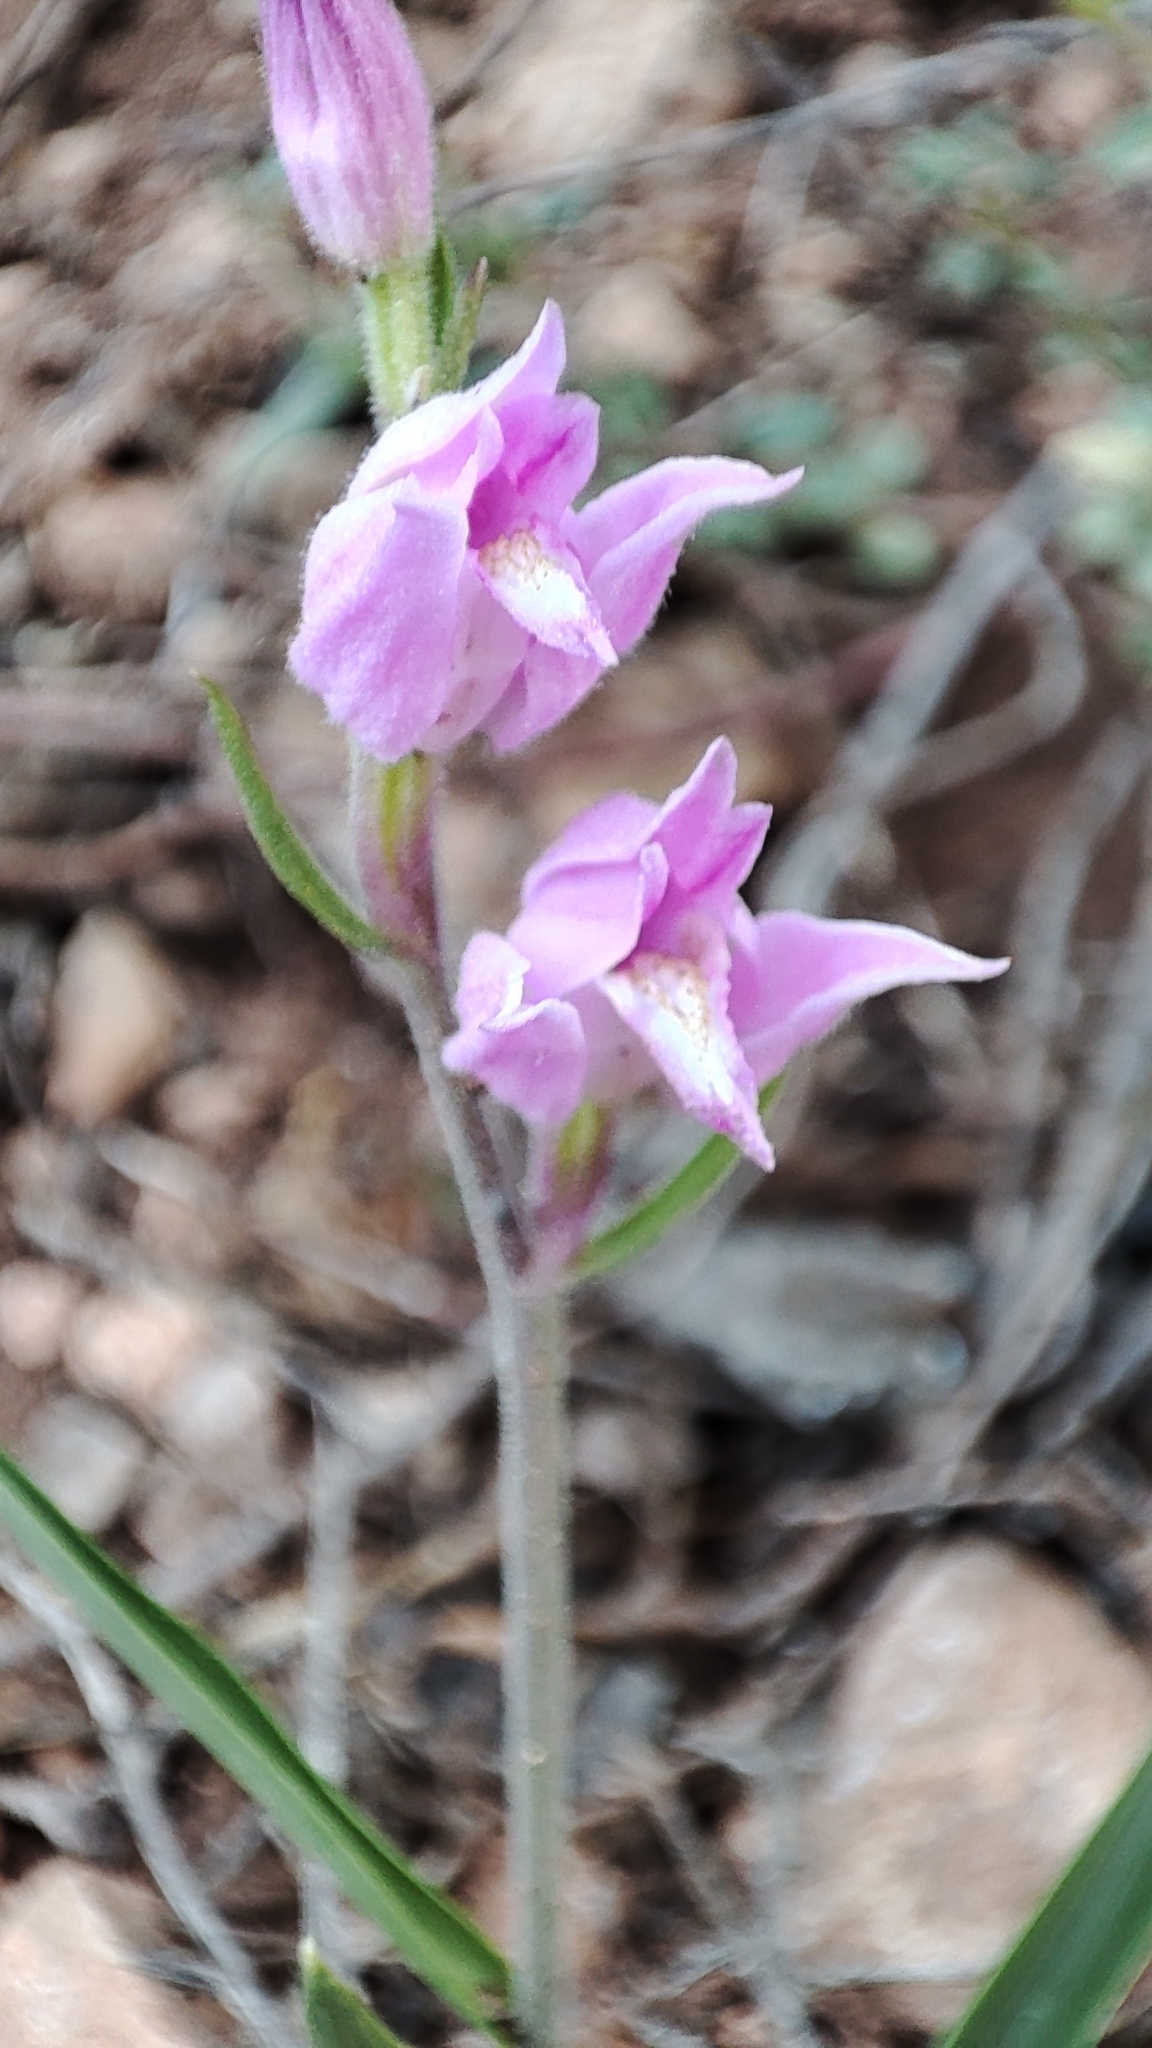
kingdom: Plantae
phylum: Tracheophyta
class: Liliopsida
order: Asparagales
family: Orchidaceae
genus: Cephalanthera
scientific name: Cephalanthera rubra
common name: Red helleborine
